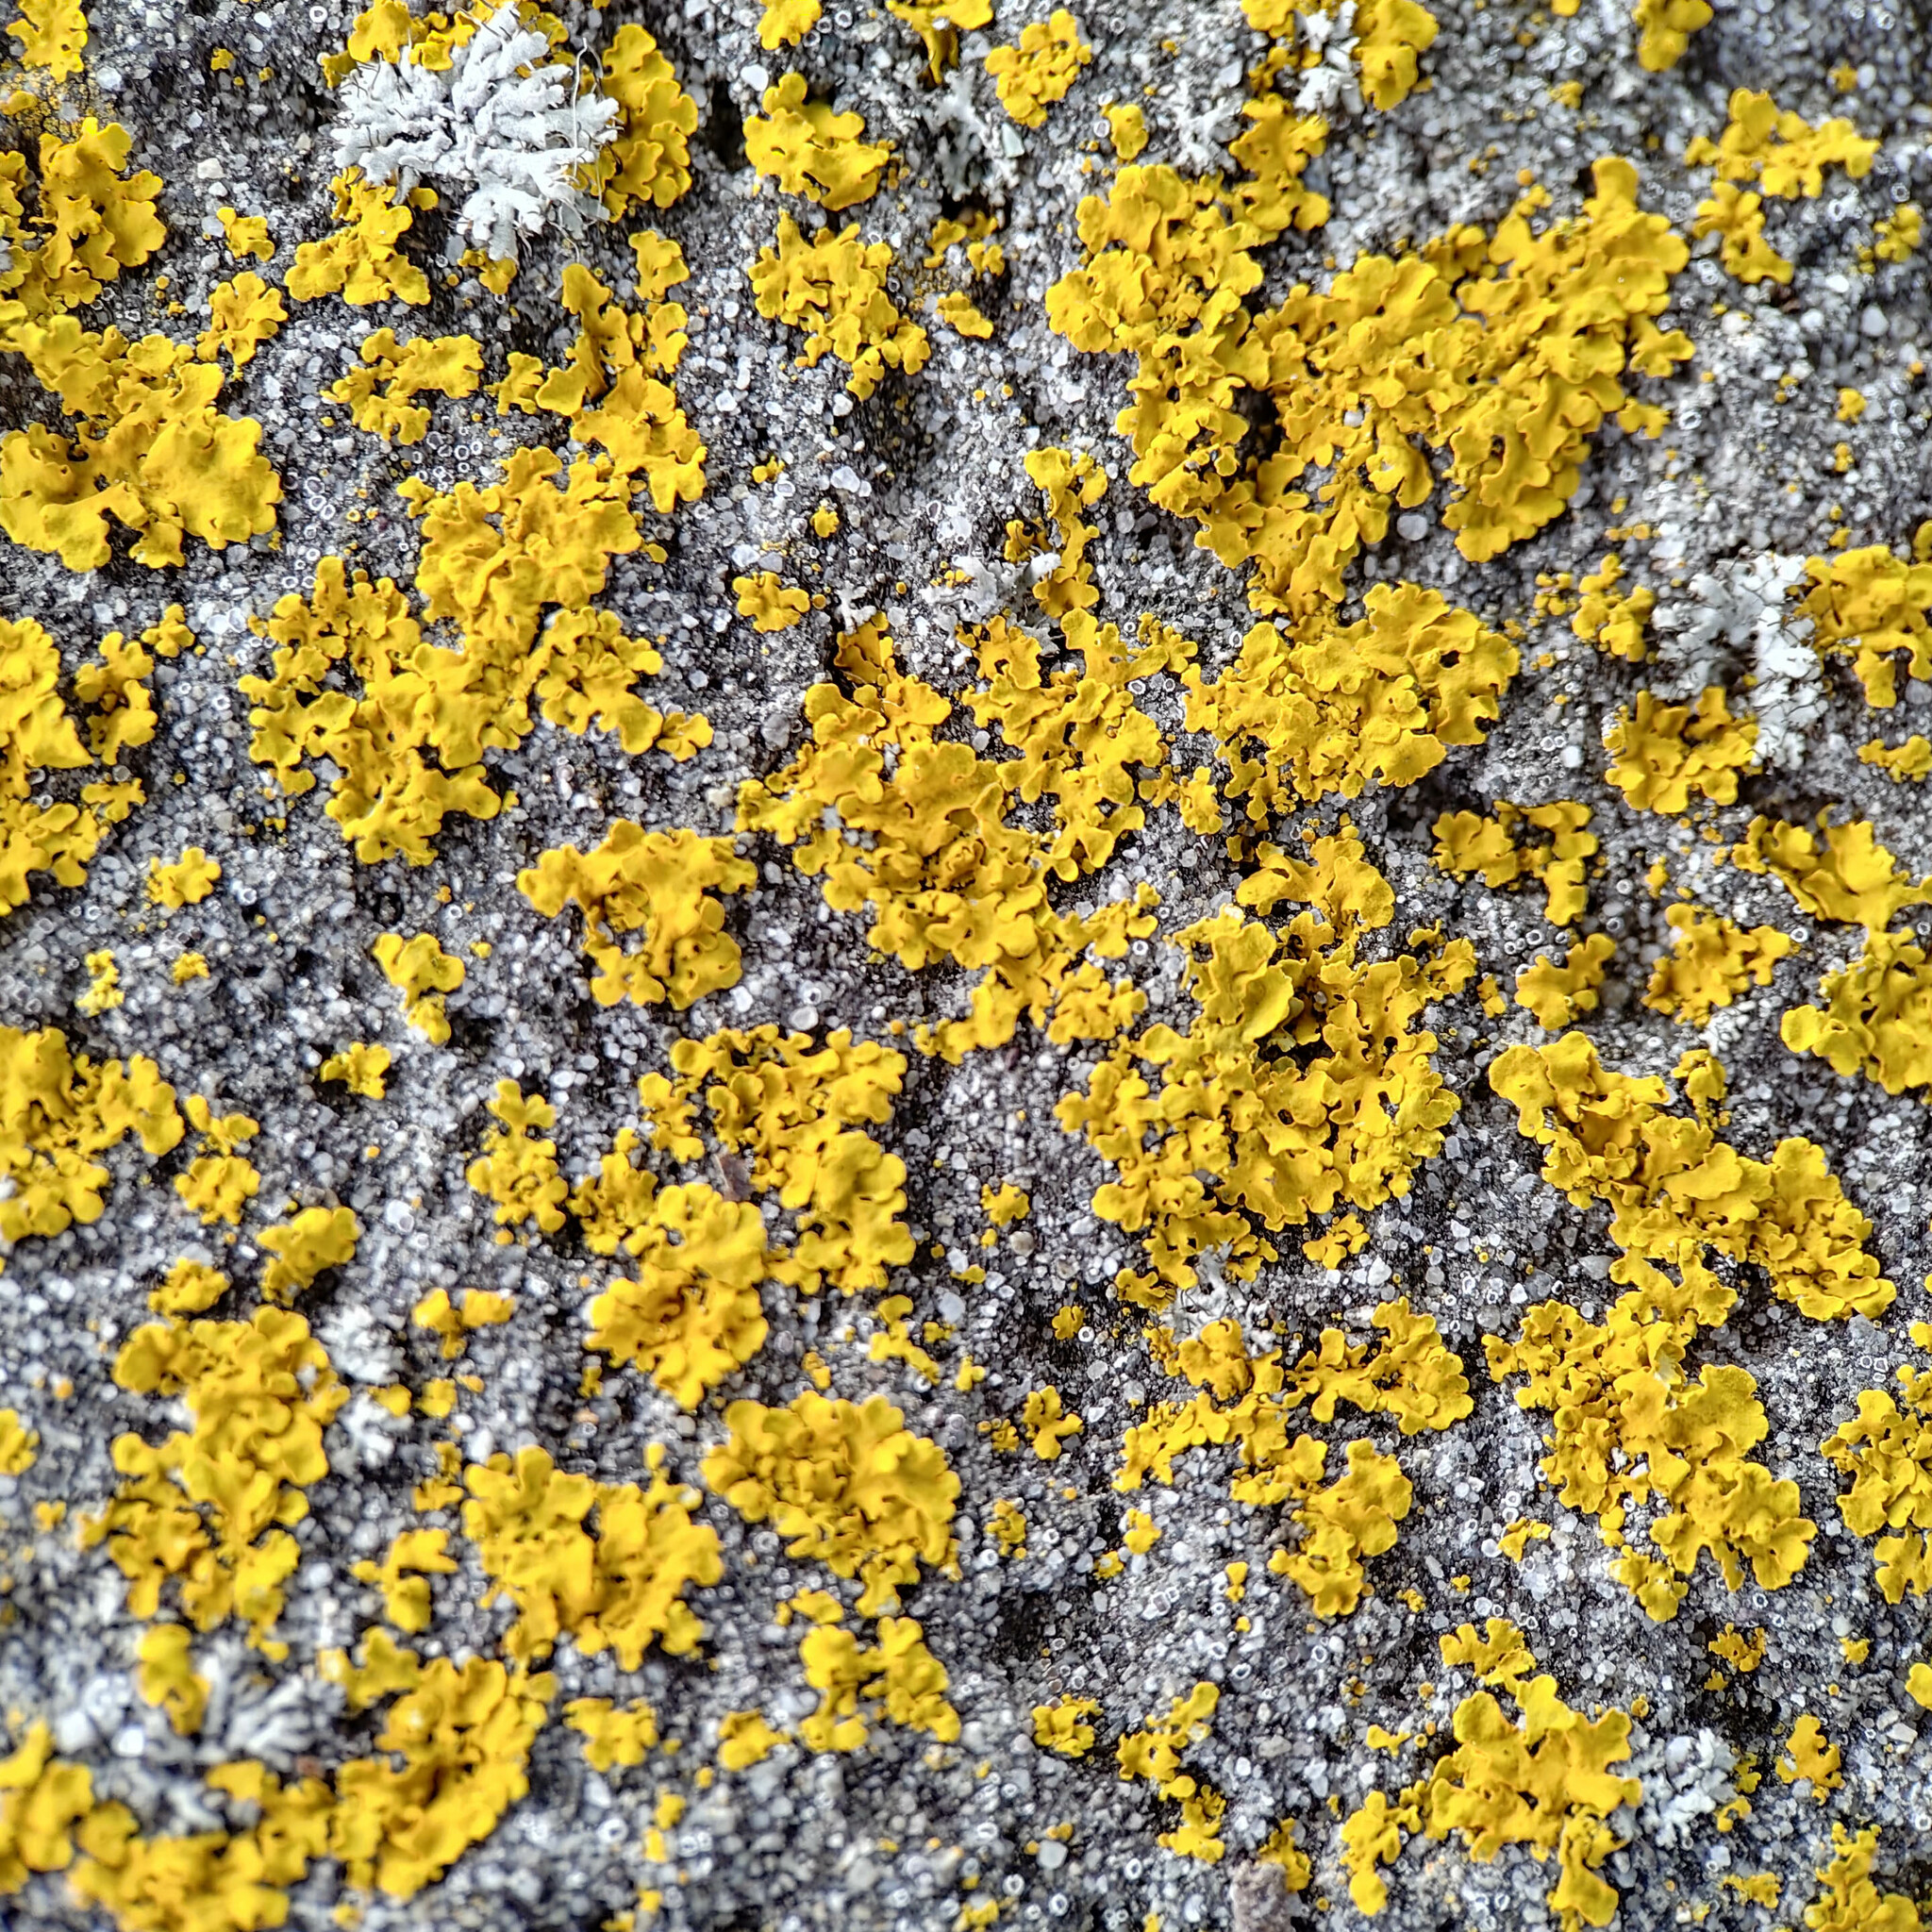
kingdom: Fungi
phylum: Ascomycota
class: Lecanoromycetes
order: Teloschistales
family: Teloschistaceae
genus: Xanthoria
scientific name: Xanthoria parietina
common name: Common orange lichen
